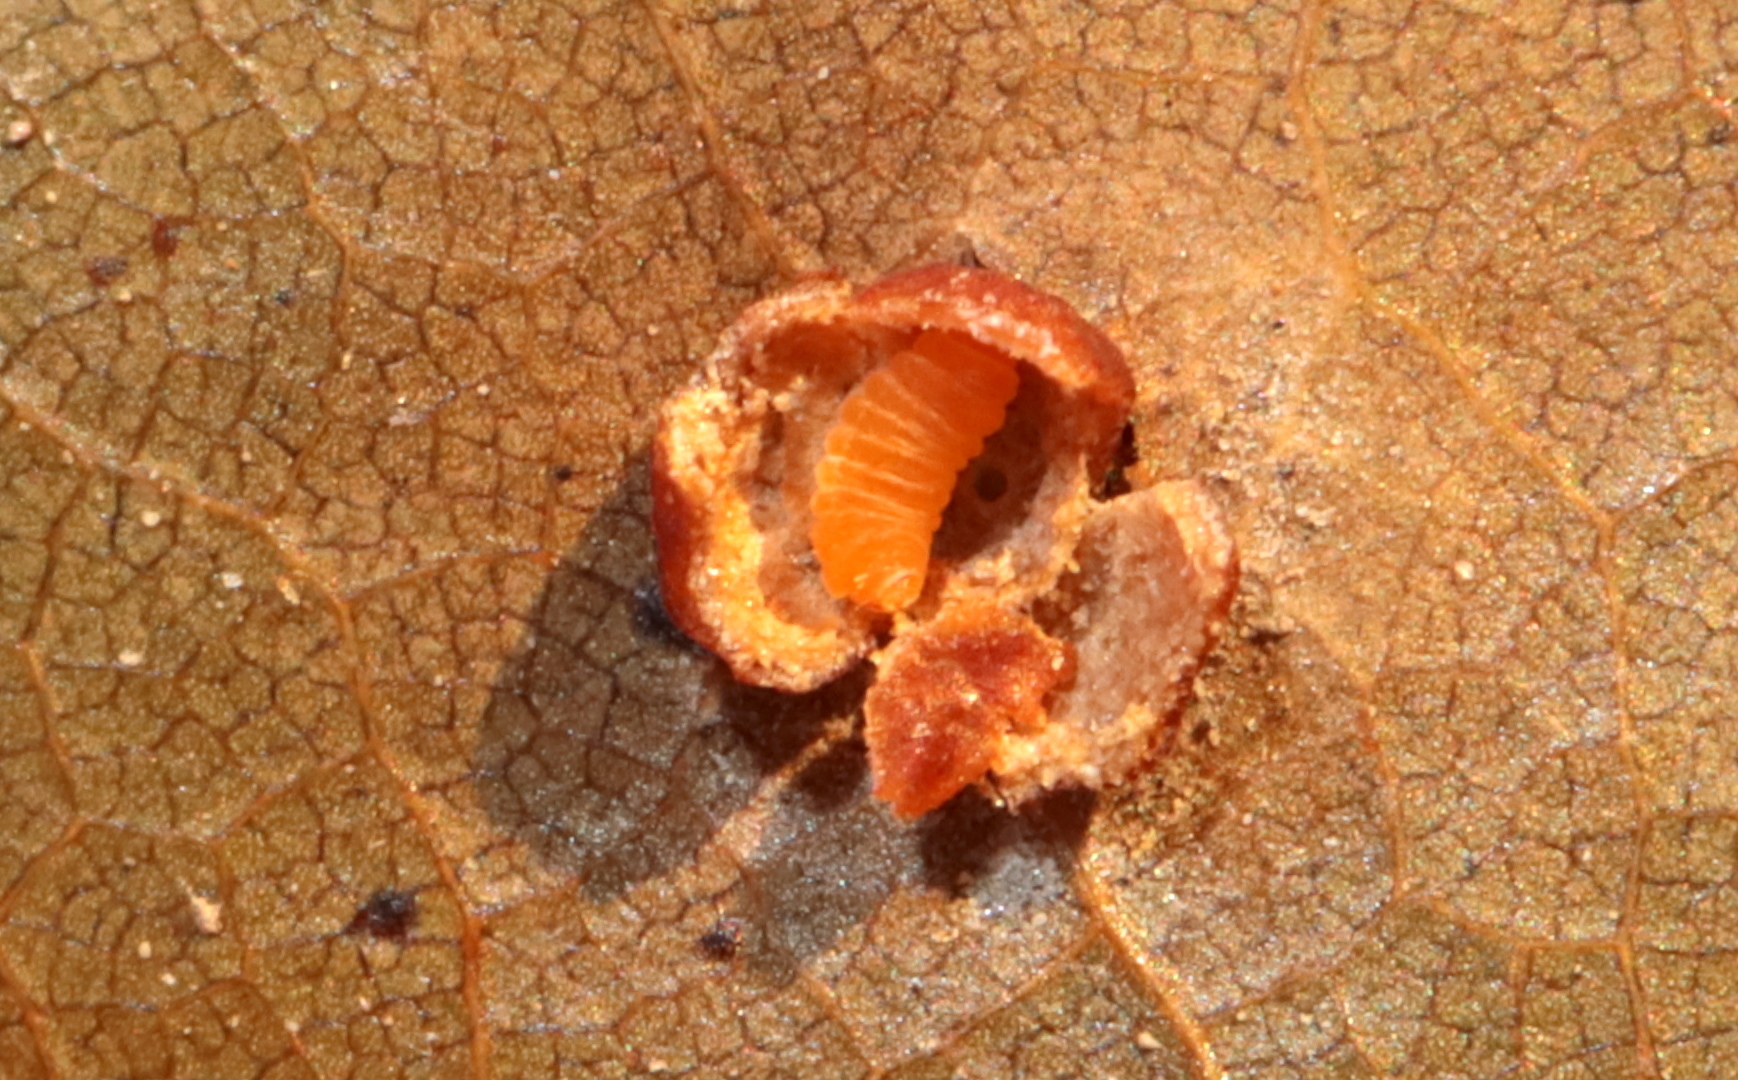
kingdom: Animalia
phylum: Arthropoda
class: Insecta
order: Diptera
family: Cecidomyiidae
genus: Polystepha
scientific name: Polystepha globosa
